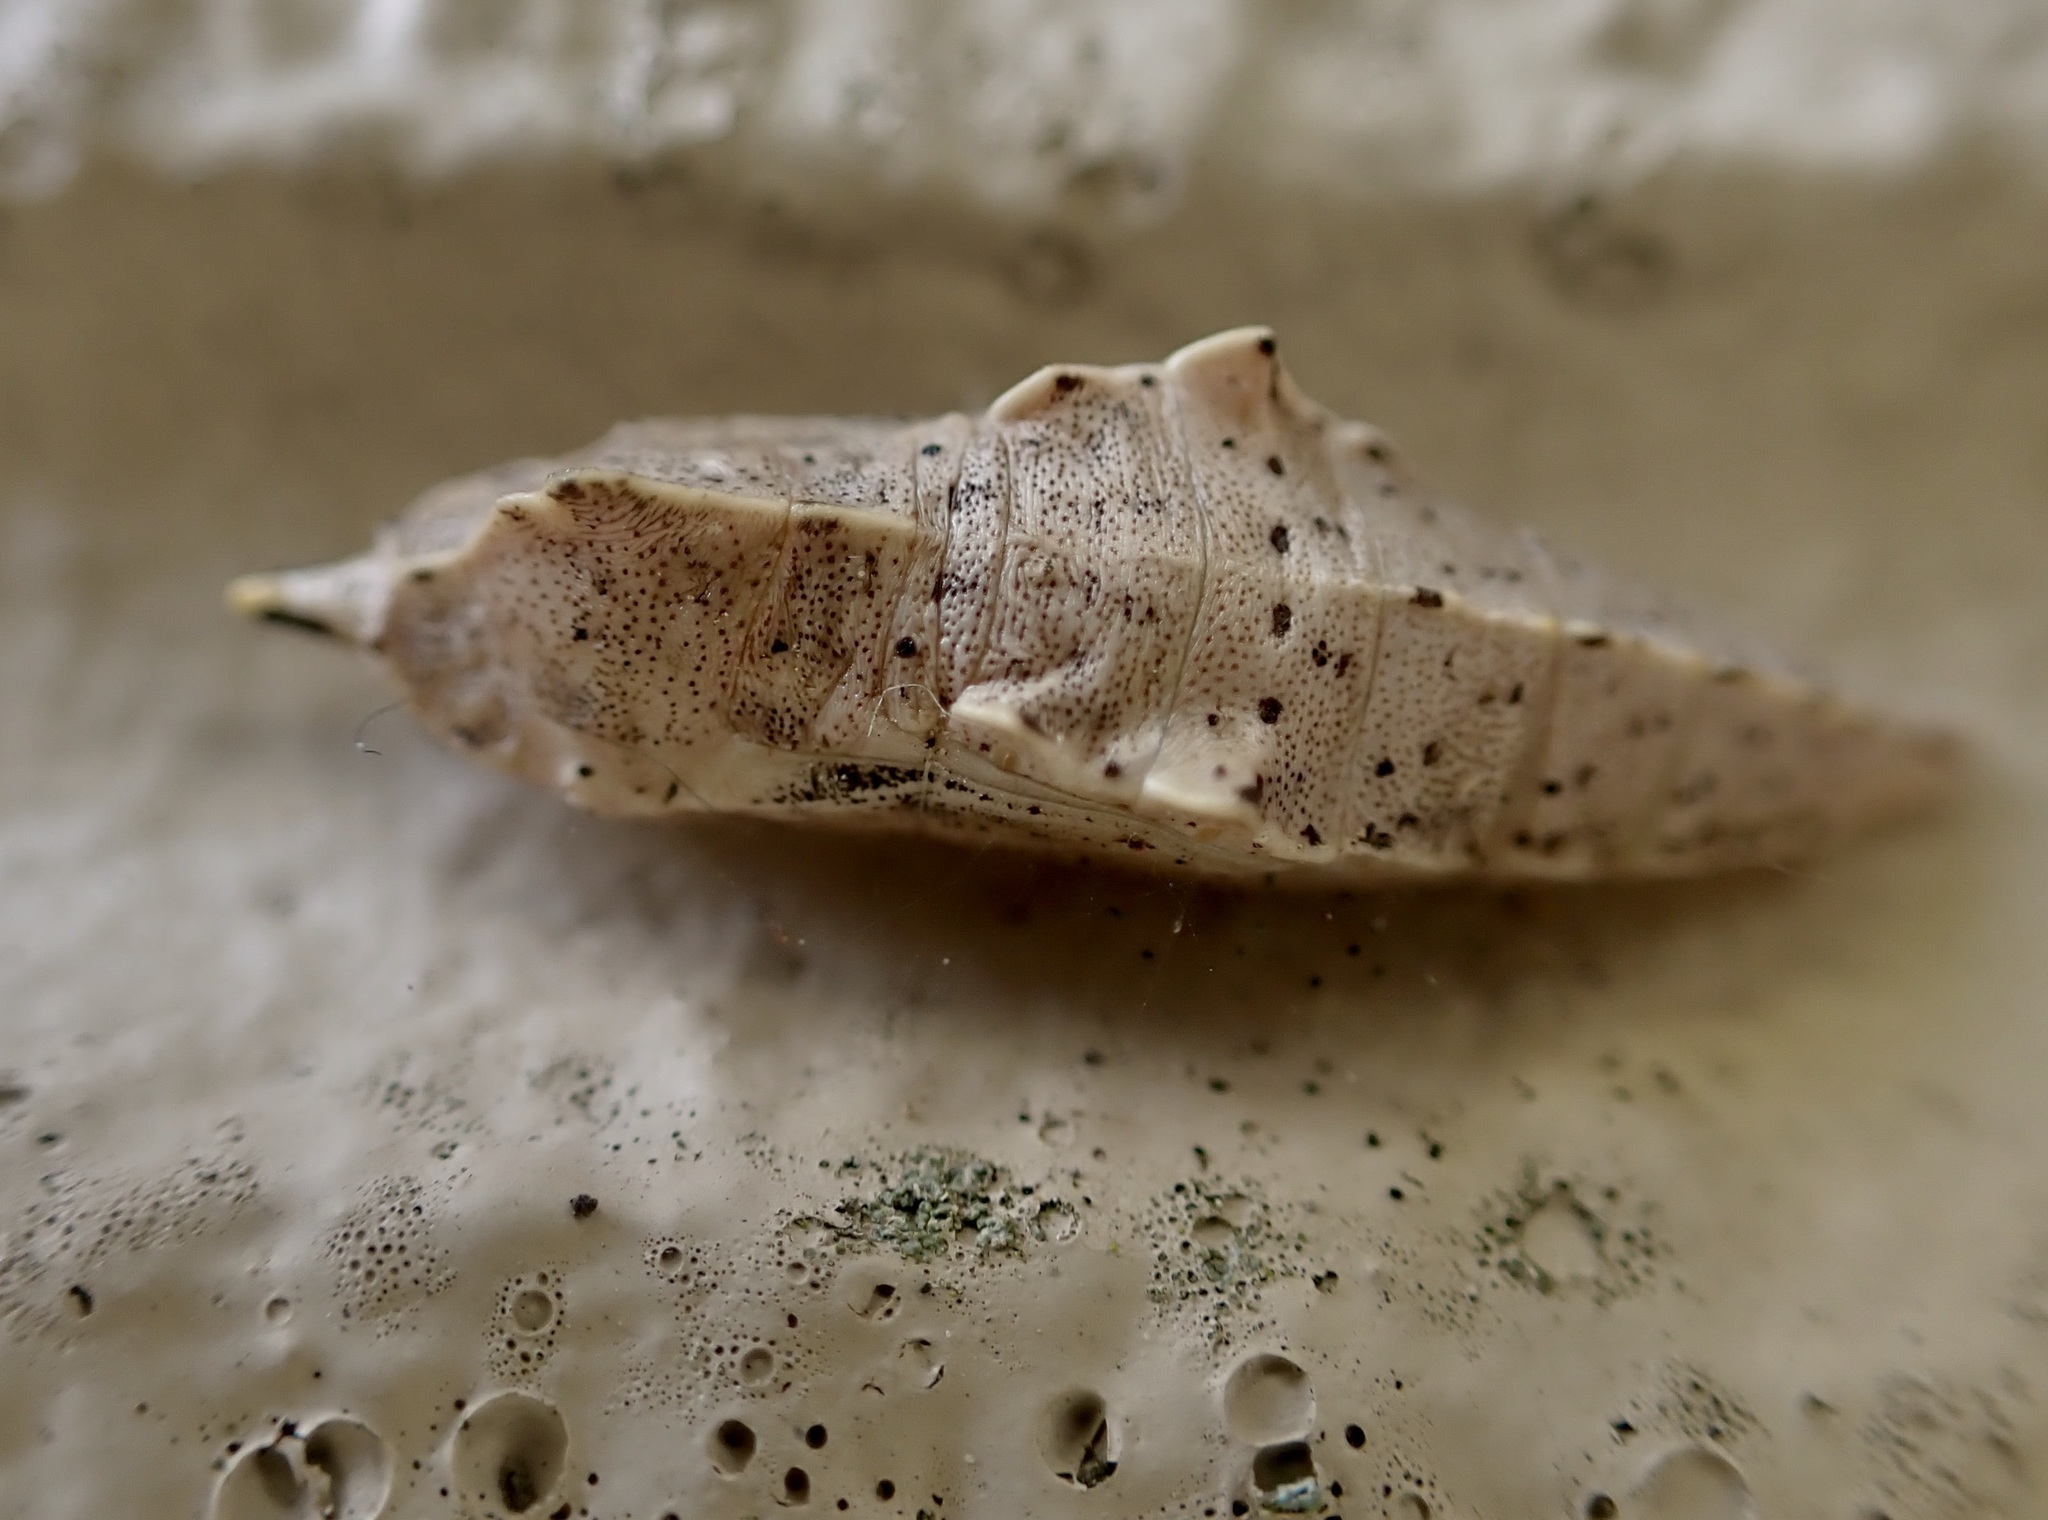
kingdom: Animalia
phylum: Arthropoda
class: Insecta
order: Lepidoptera
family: Pieridae
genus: Pieris
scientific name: Pieris rapae
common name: Small white
